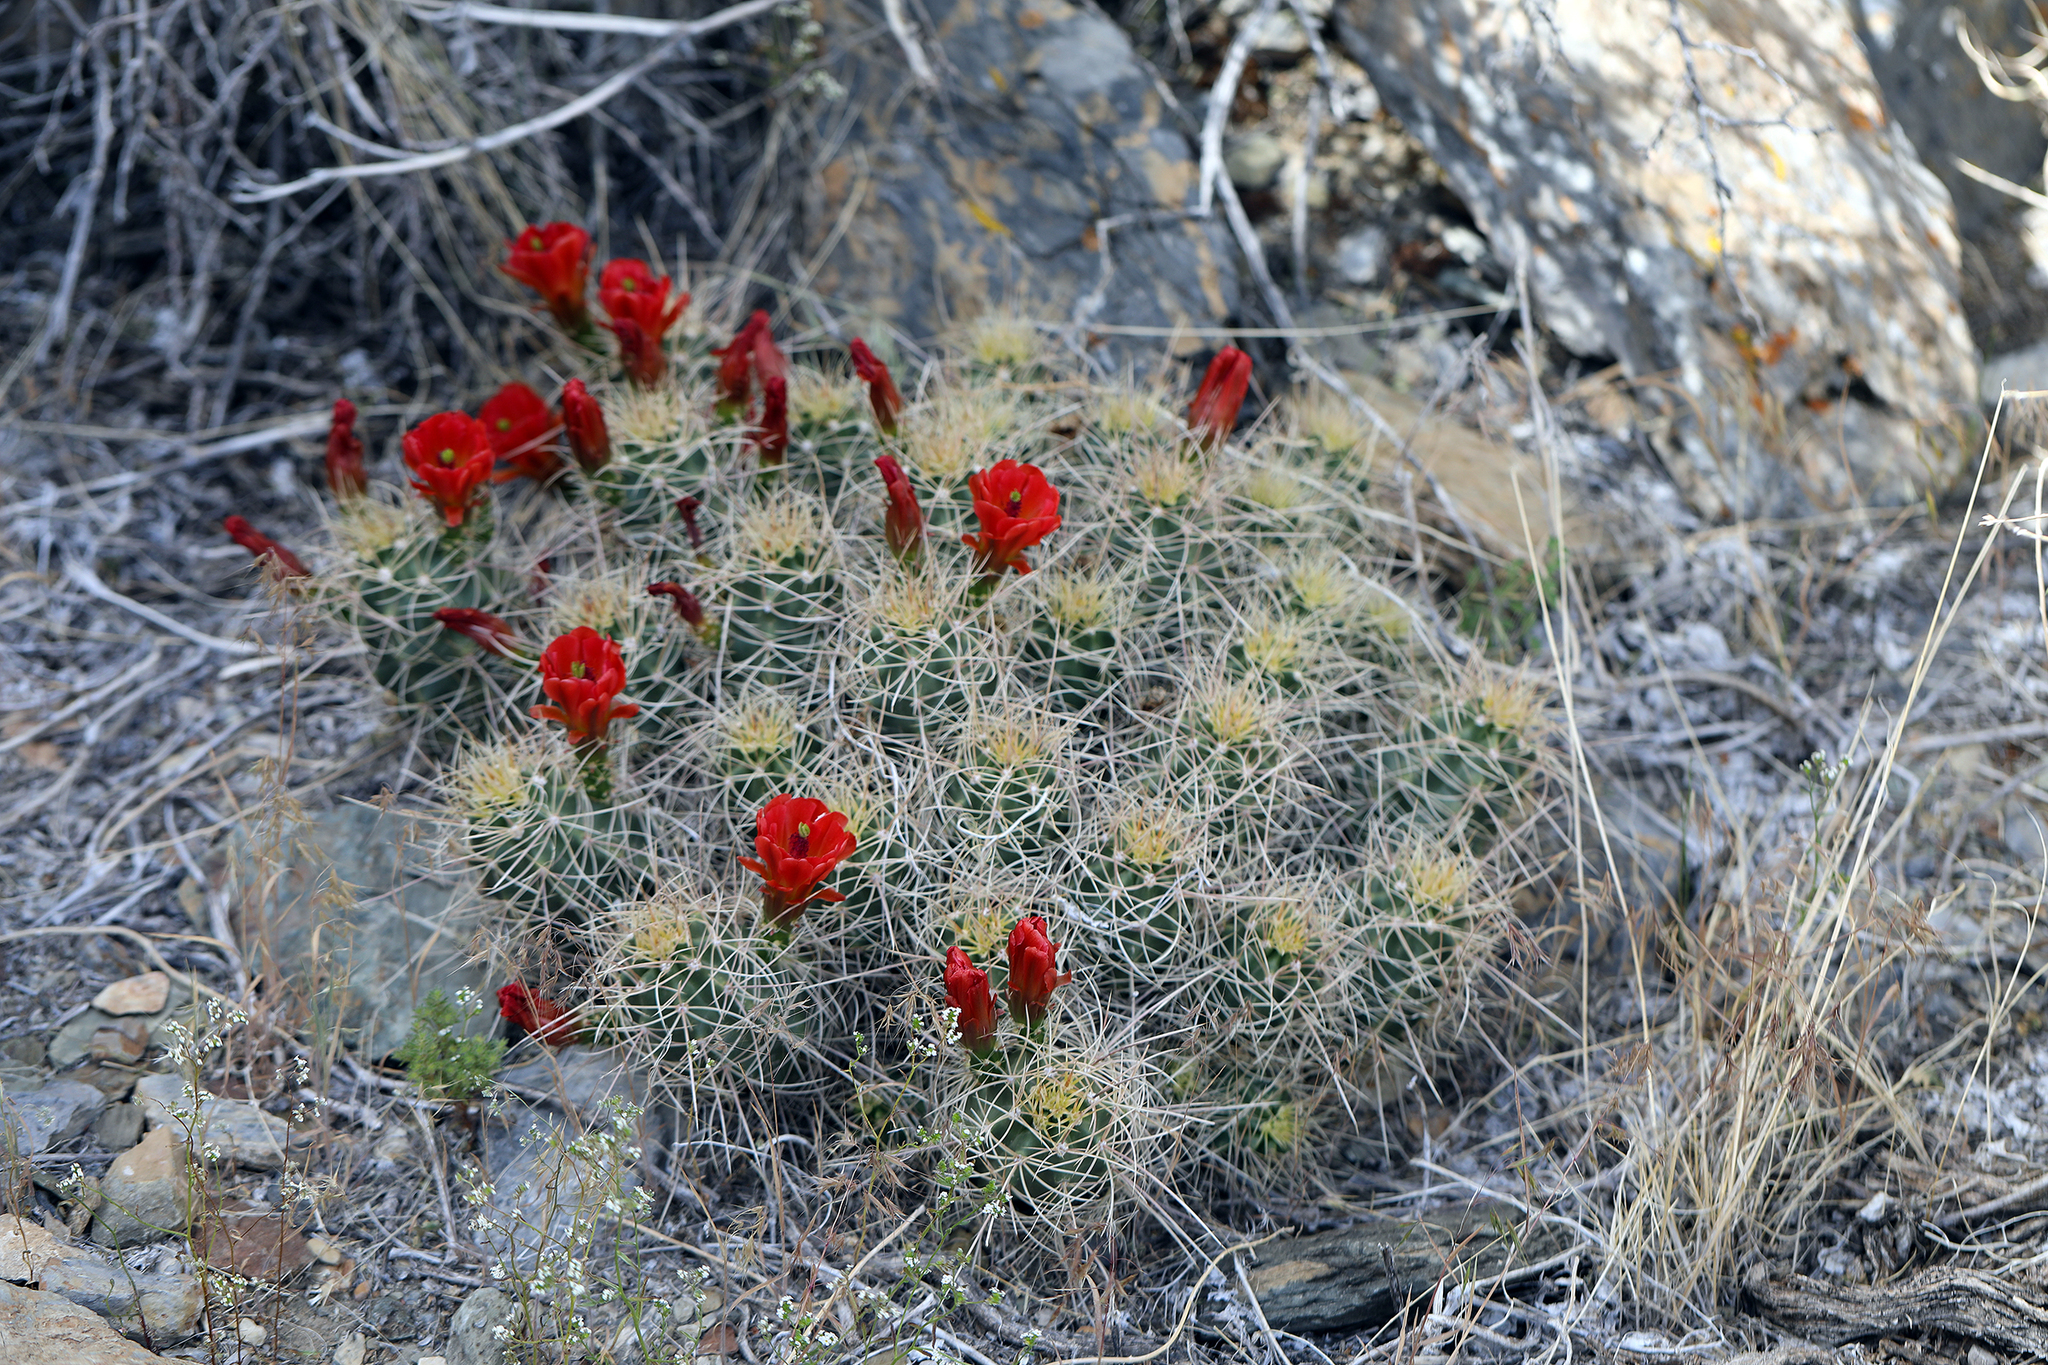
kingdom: Plantae
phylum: Tracheophyta
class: Magnoliopsida
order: Caryophyllales
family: Cactaceae
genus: Echinocereus
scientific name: Echinocereus triglochidiatus
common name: Claretcup hedgehog
